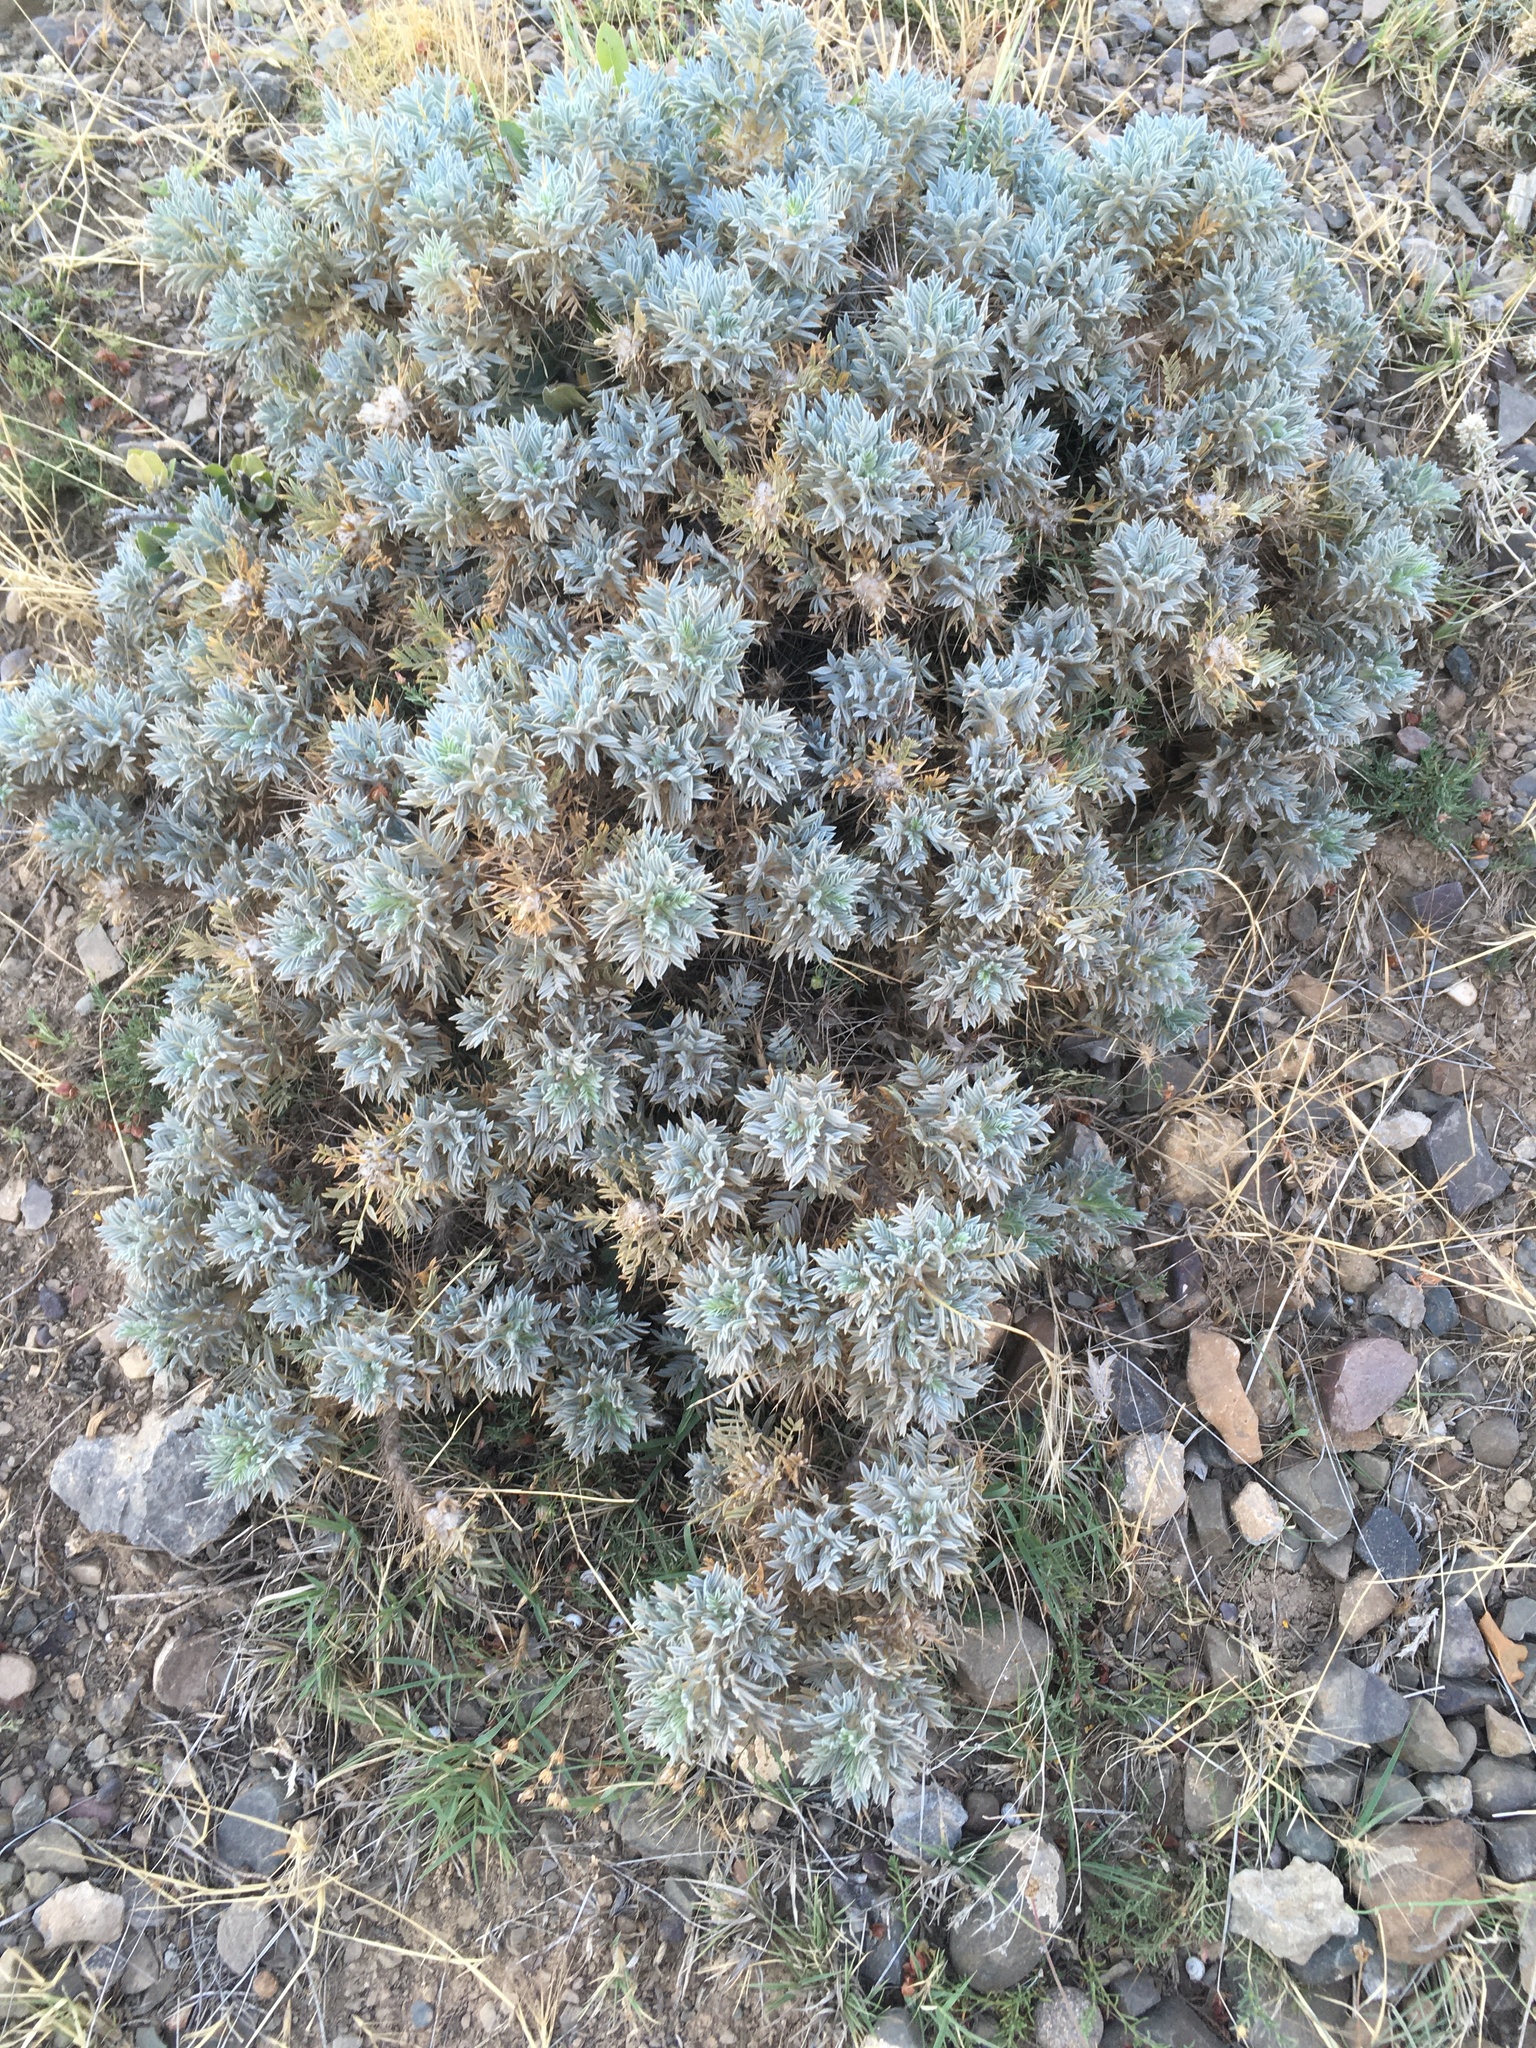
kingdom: Plantae
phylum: Tracheophyta
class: Magnoliopsida
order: Fabales
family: Fabaceae
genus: Astragalus
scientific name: Astragalus arnacantha
